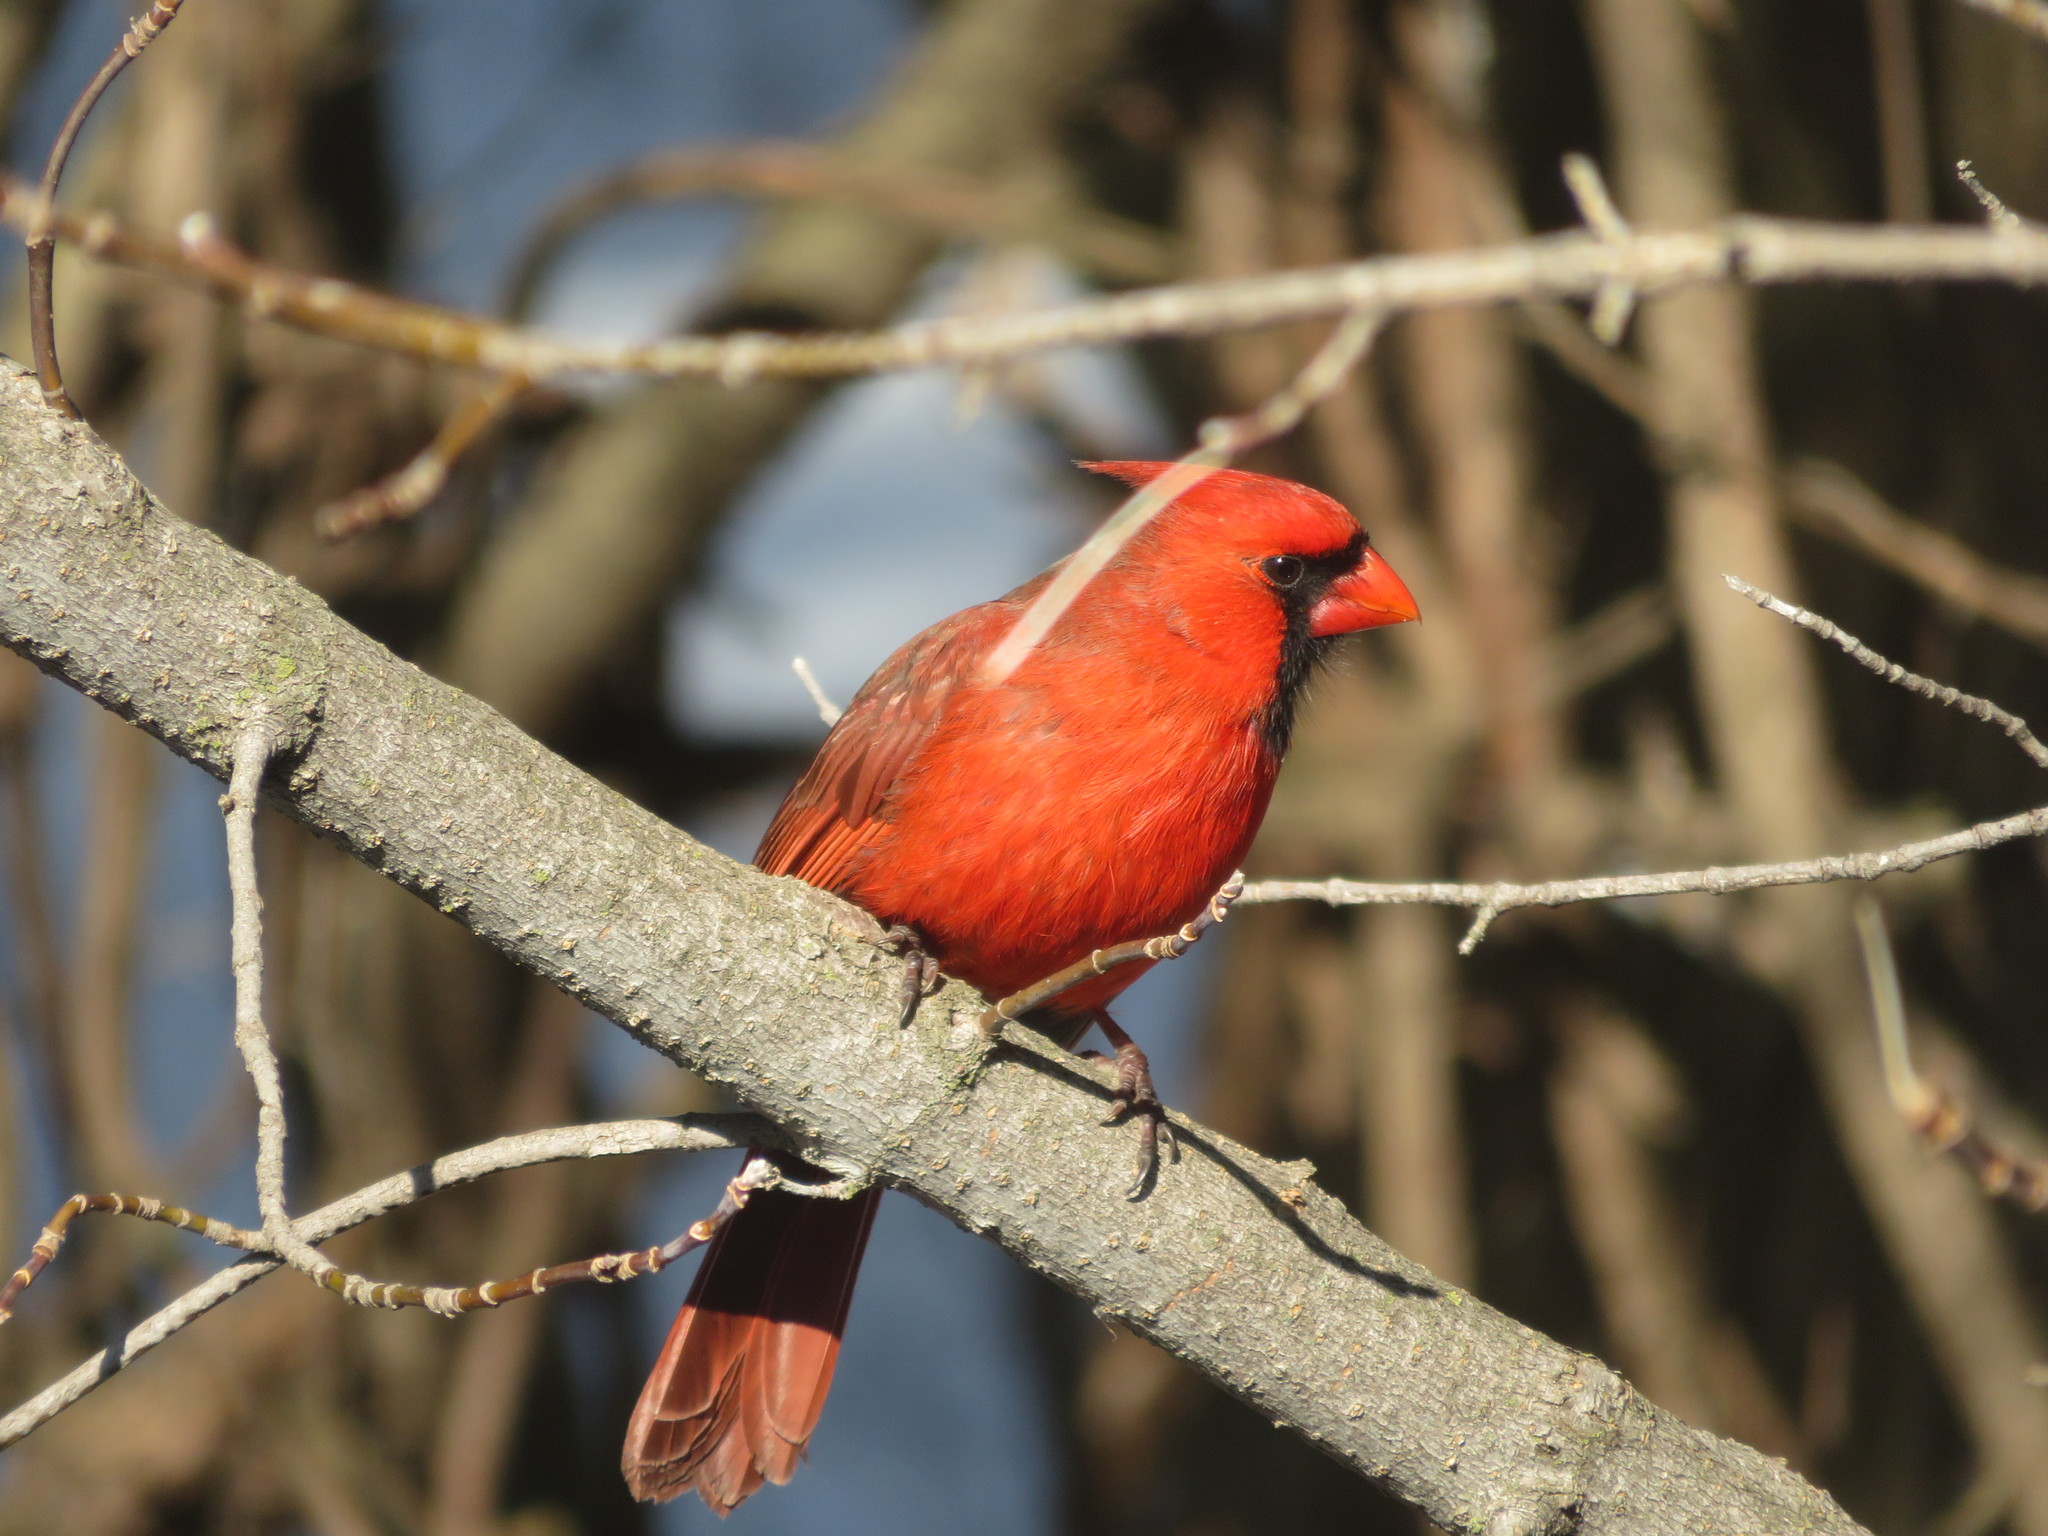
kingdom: Animalia
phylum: Chordata
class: Aves
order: Passeriformes
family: Cardinalidae
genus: Cardinalis
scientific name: Cardinalis cardinalis
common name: Northern cardinal
